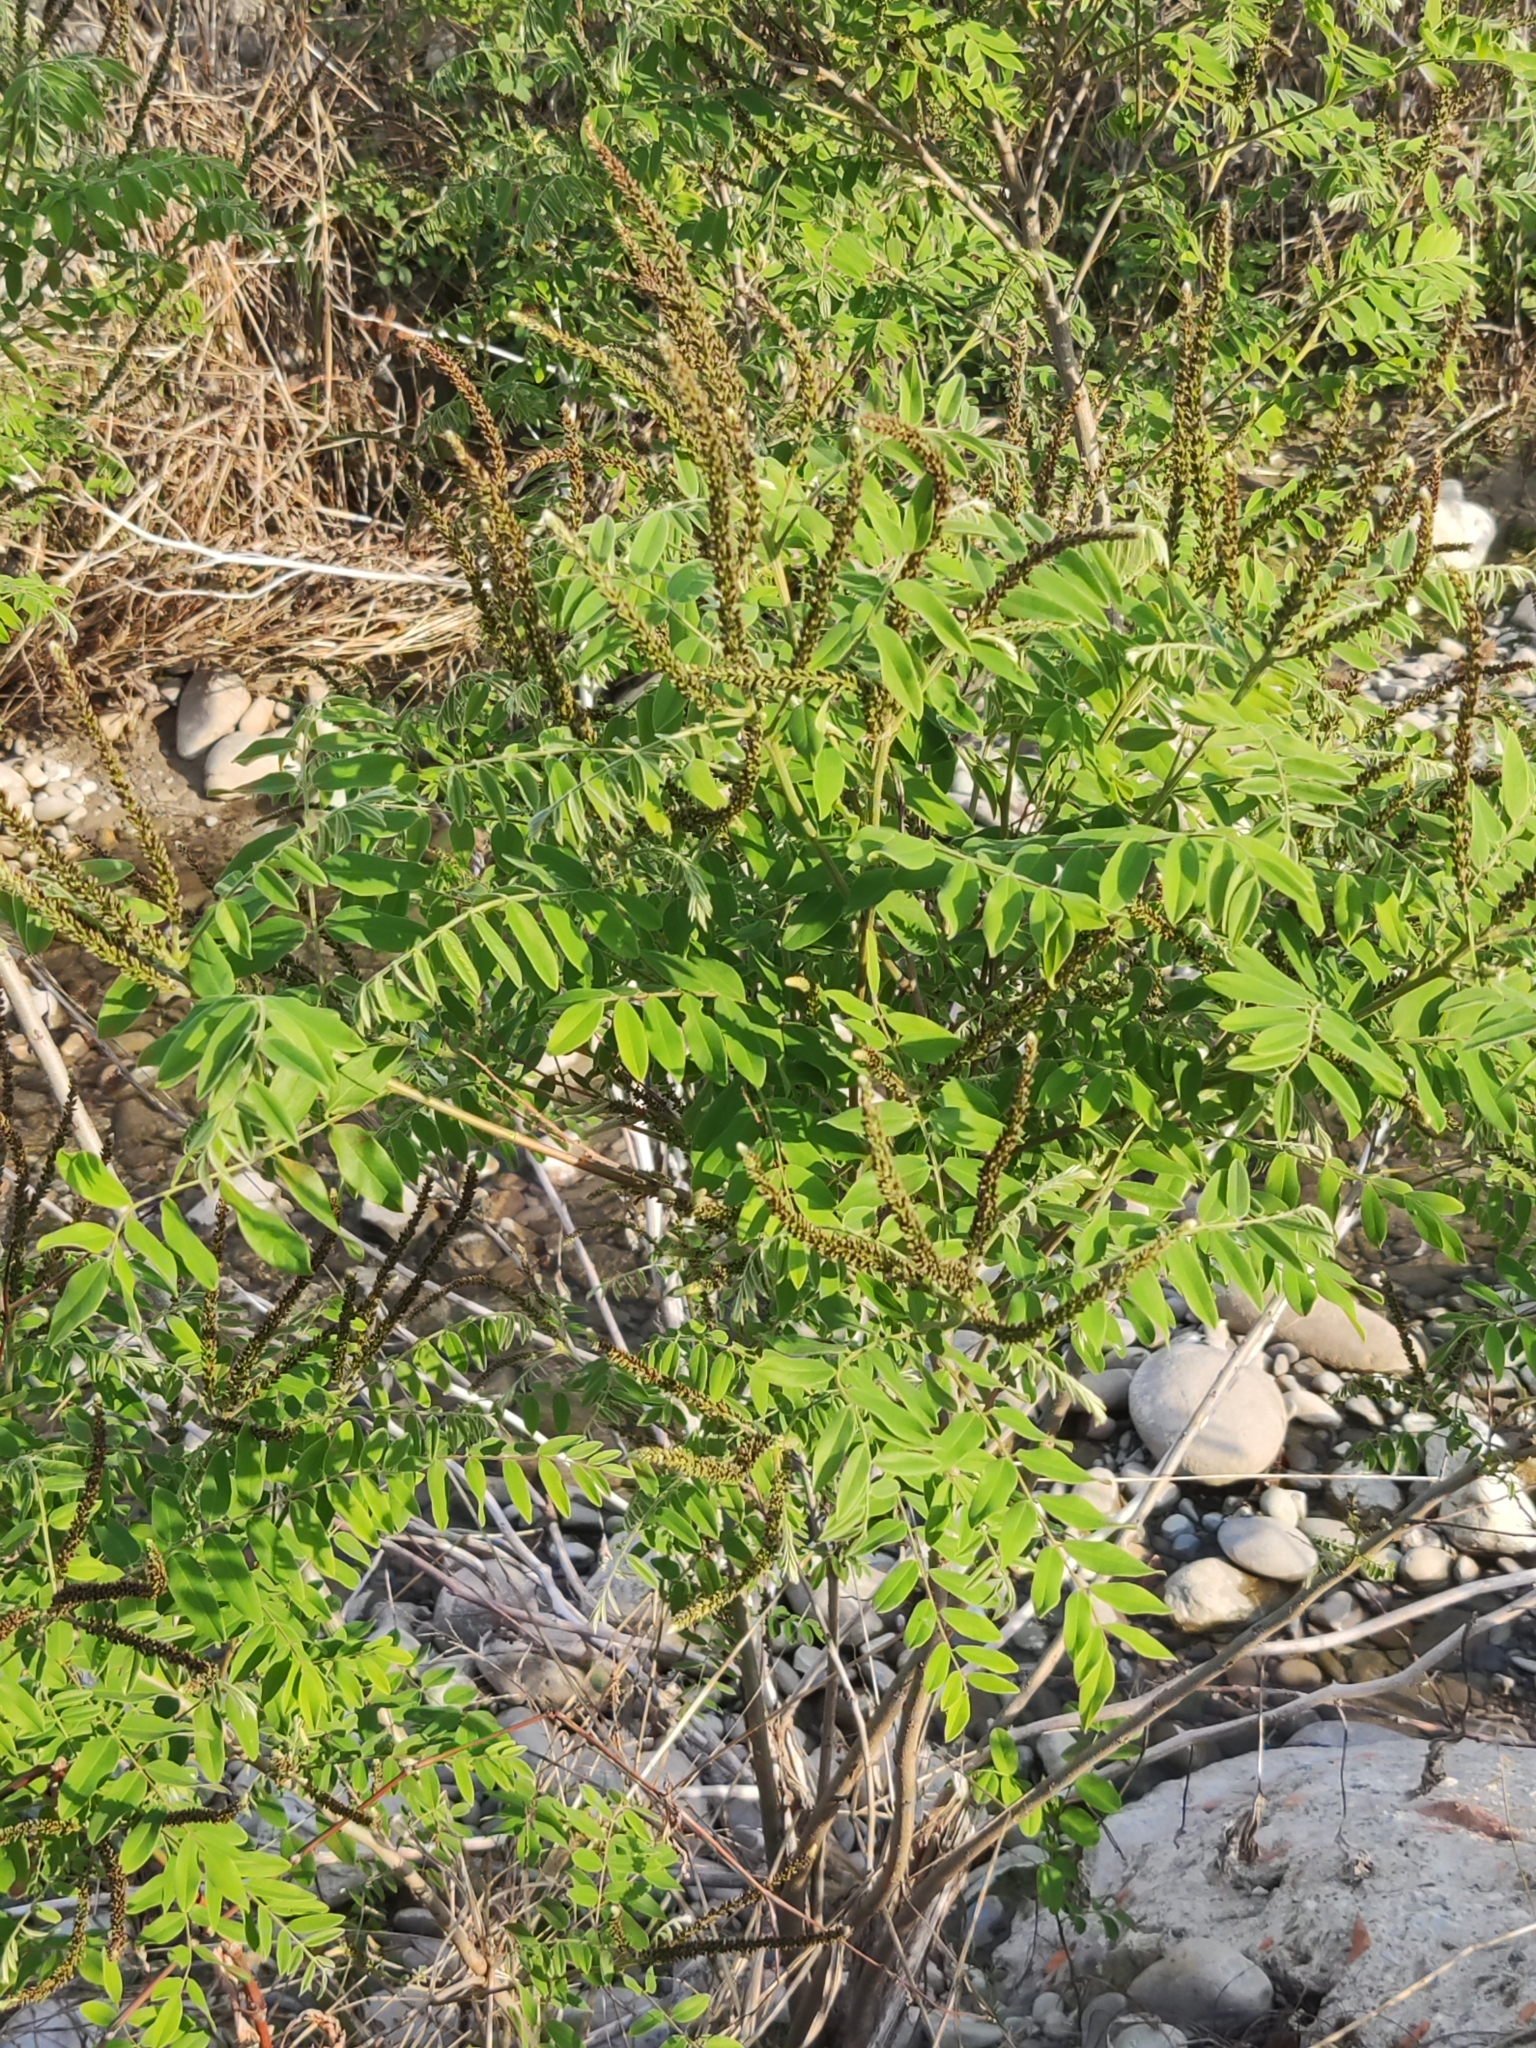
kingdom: Plantae
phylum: Tracheophyta
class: Magnoliopsida
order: Fabales
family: Fabaceae
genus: Amorpha
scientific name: Amorpha fruticosa
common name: False indigo
